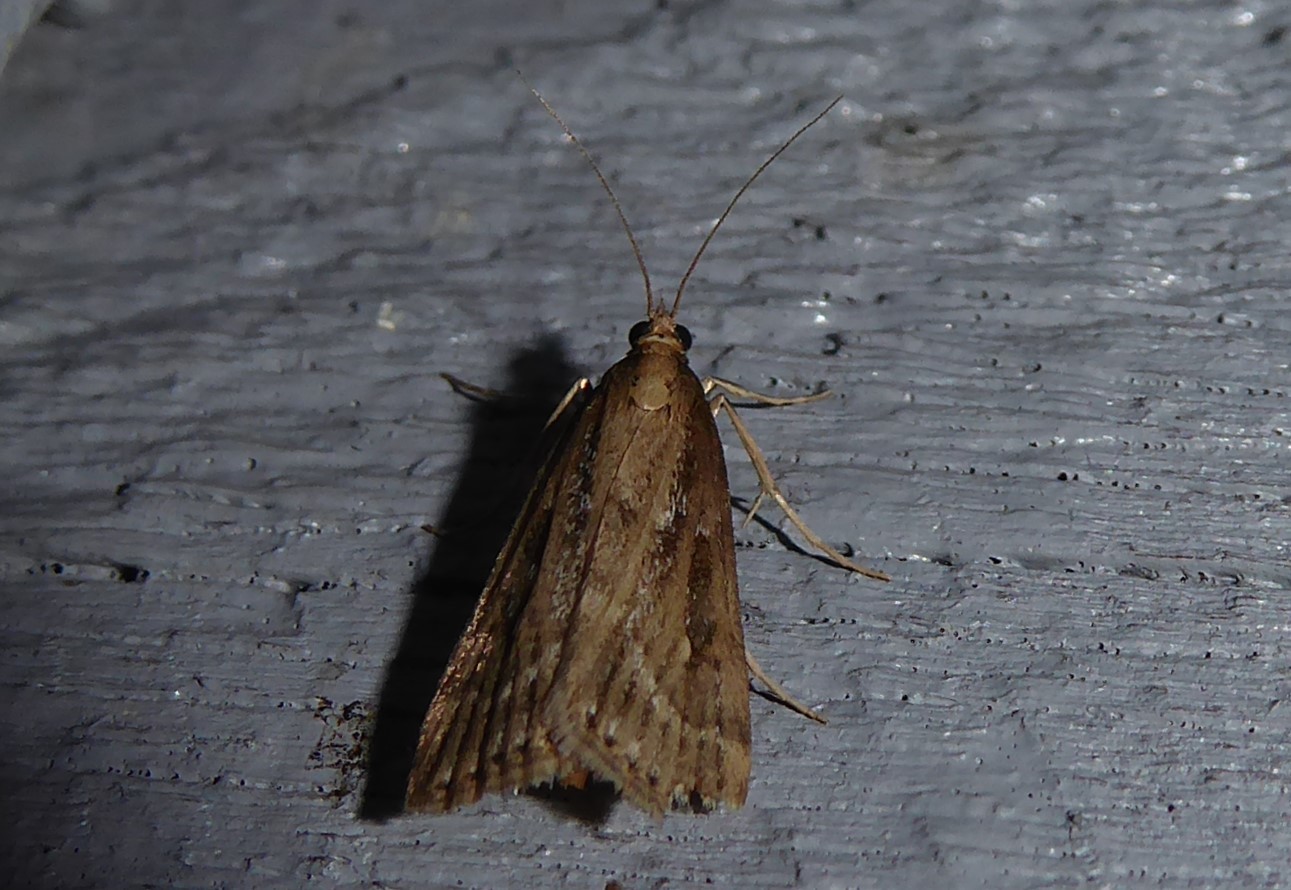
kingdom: Animalia
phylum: Arthropoda
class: Insecta
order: Lepidoptera
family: Crambidae
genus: Eudonia
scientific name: Eudonia octophora
